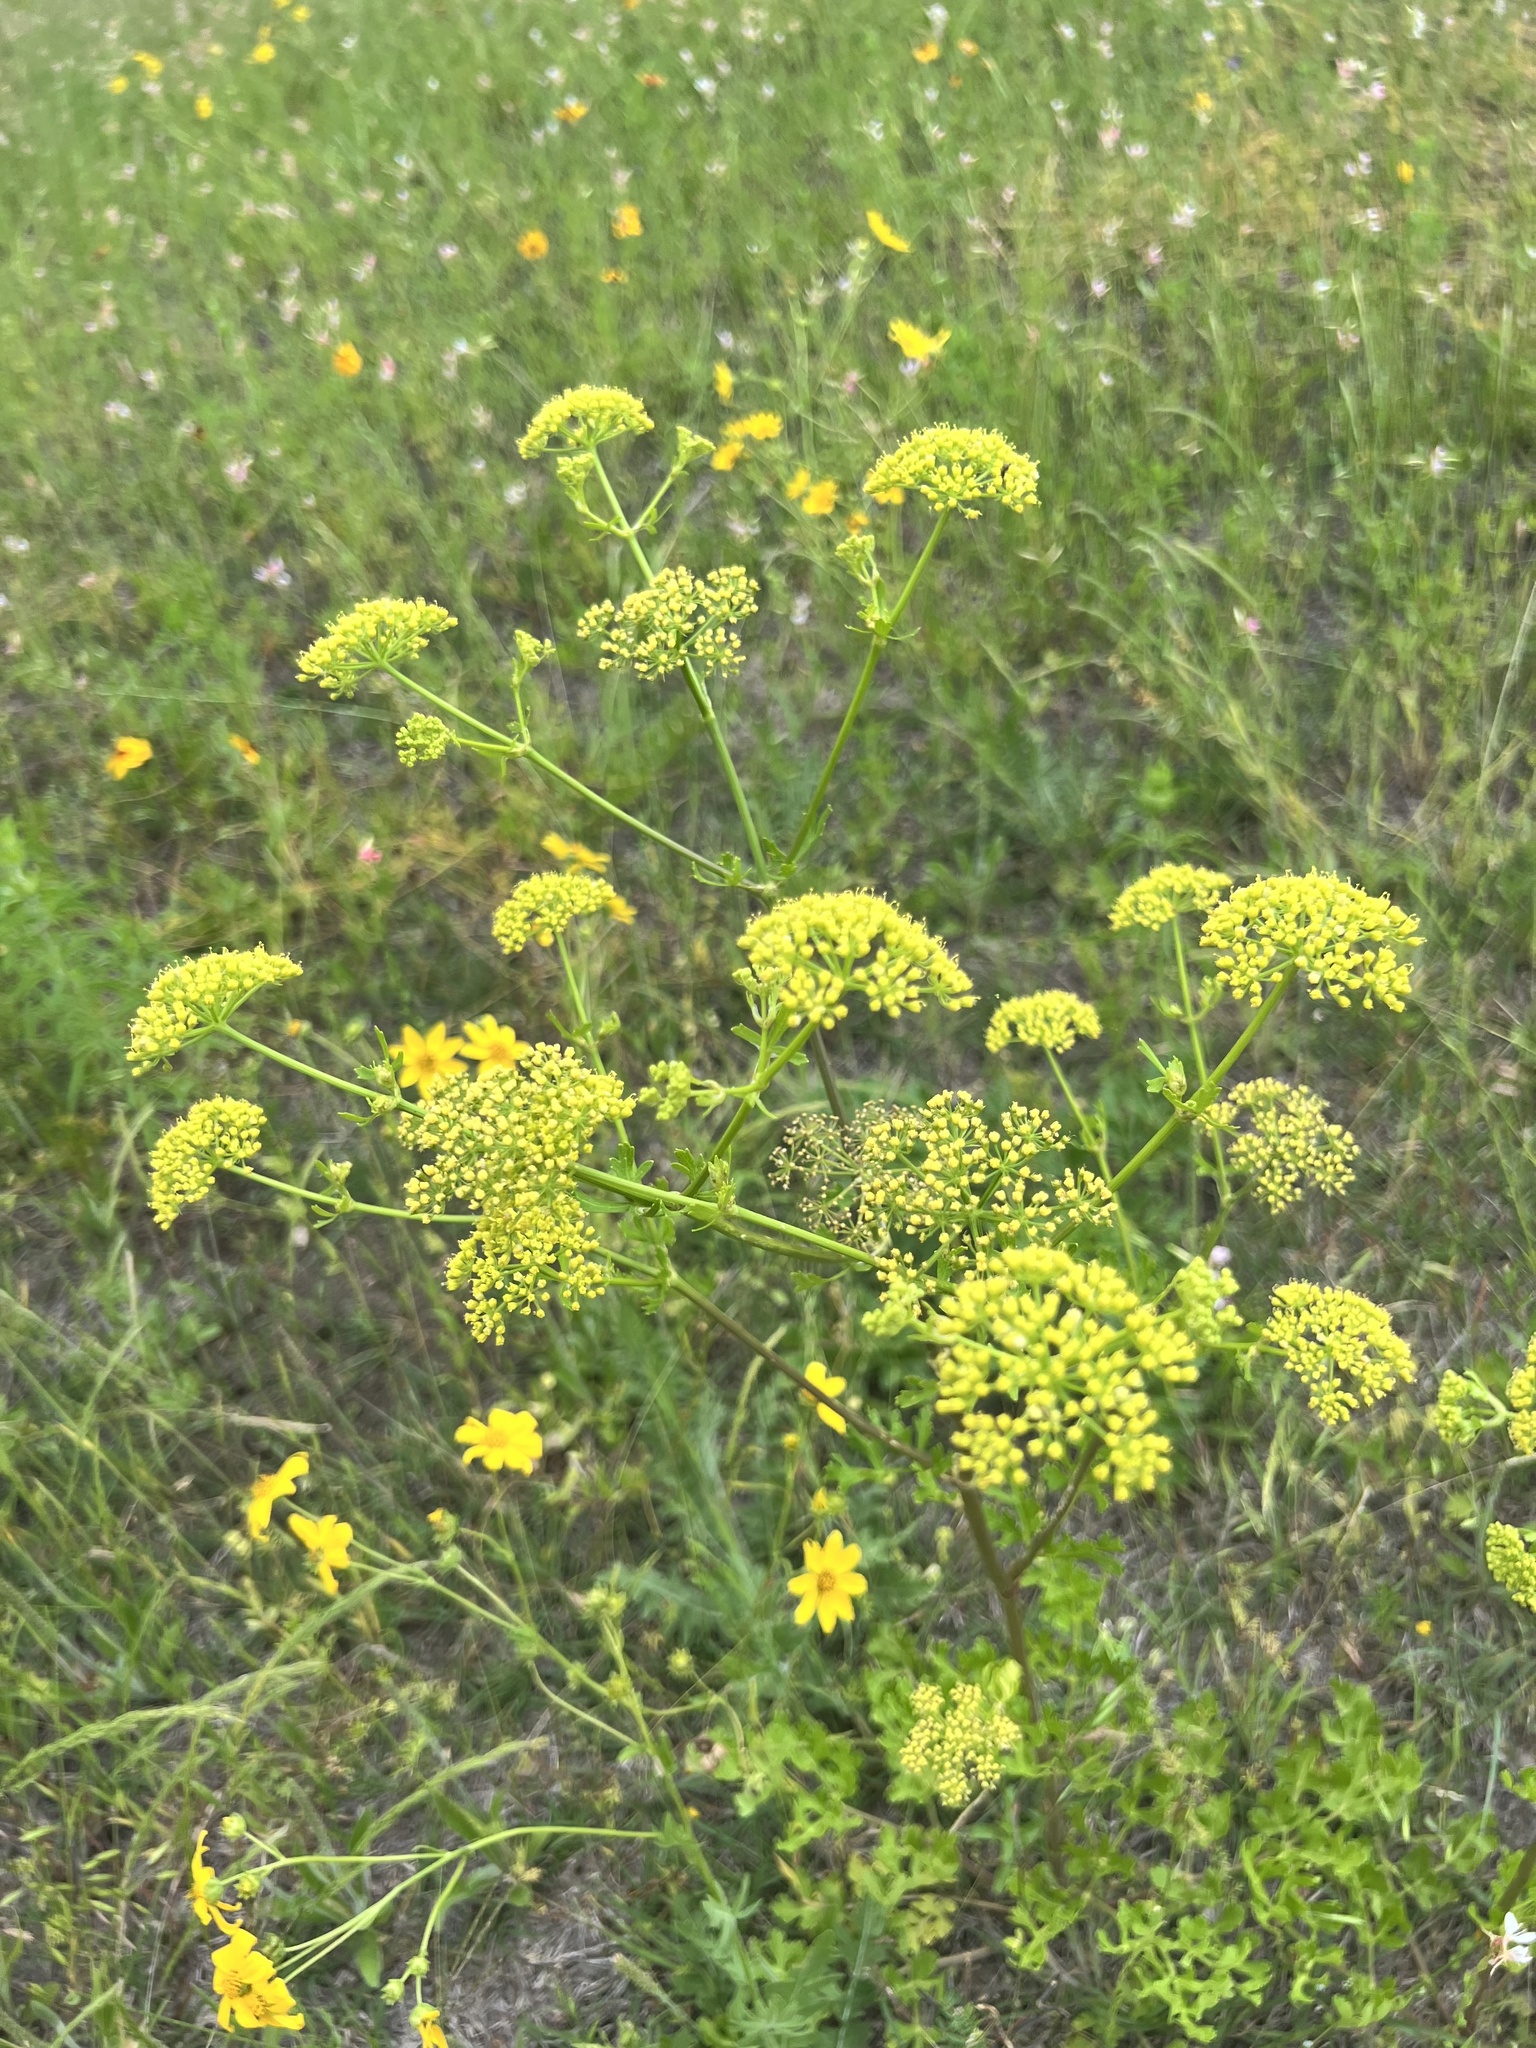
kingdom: Plantae
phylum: Tracheophyta
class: Magnoliopsida
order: Apiales
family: Apiaceae
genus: Polytaenia
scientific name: Polytaenia texana
